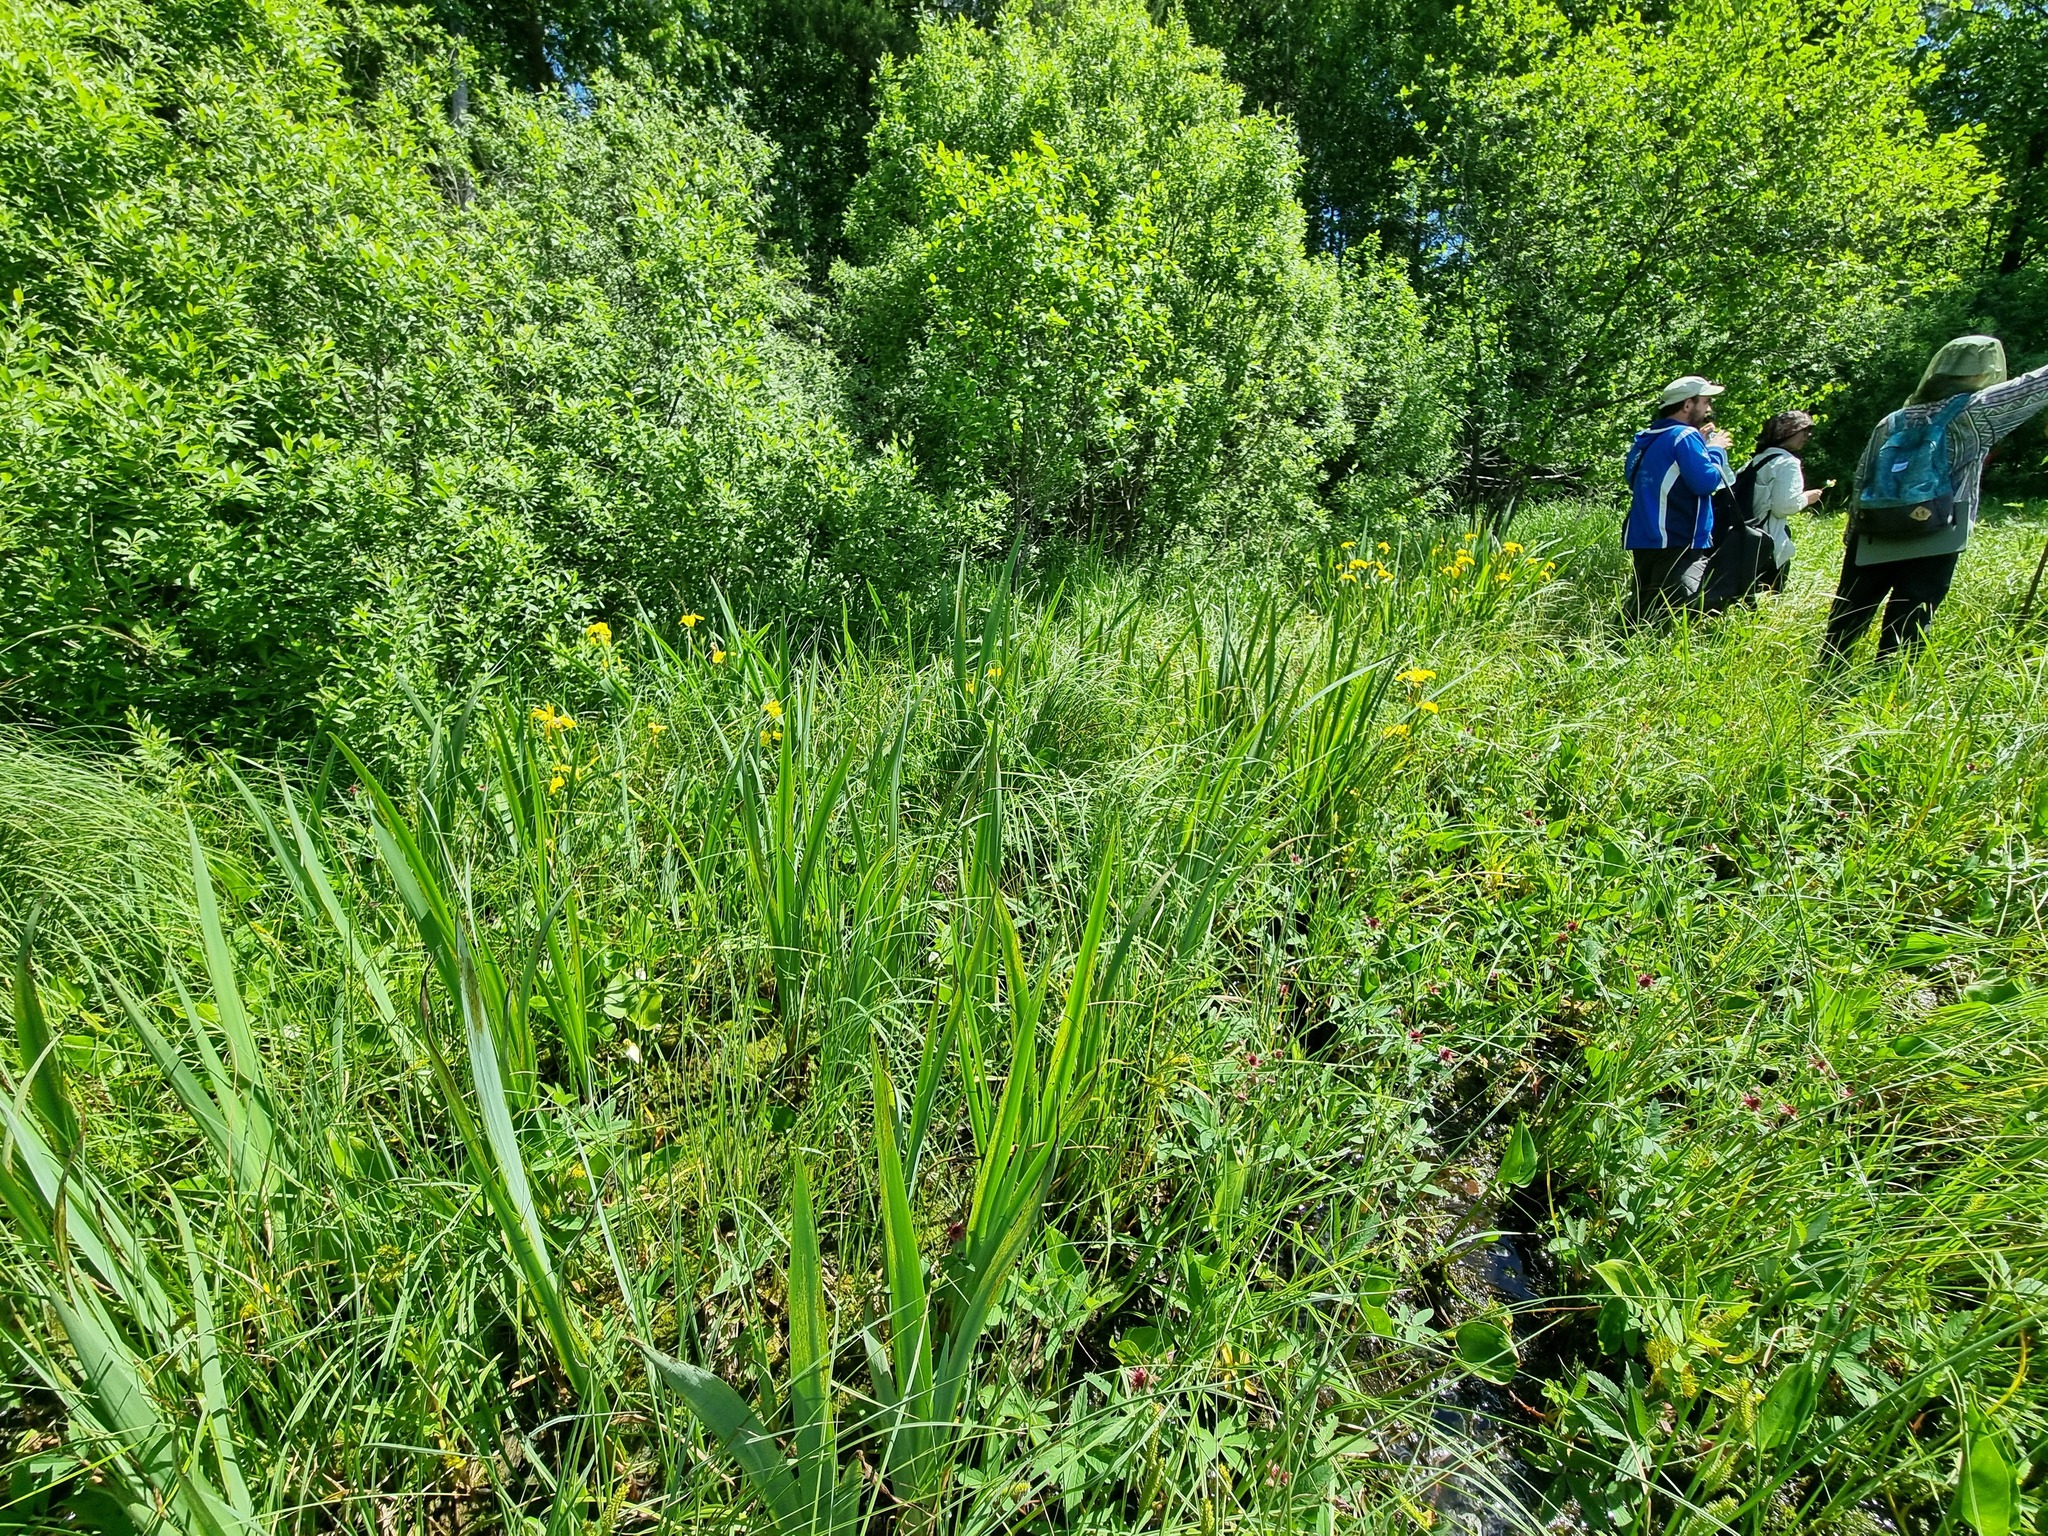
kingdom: Plantae
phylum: Tracheophyta
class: Liliopsida
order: Asparagales
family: Iridaceae
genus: Iris
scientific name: Iris pseudacorus
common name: Yellow flag
